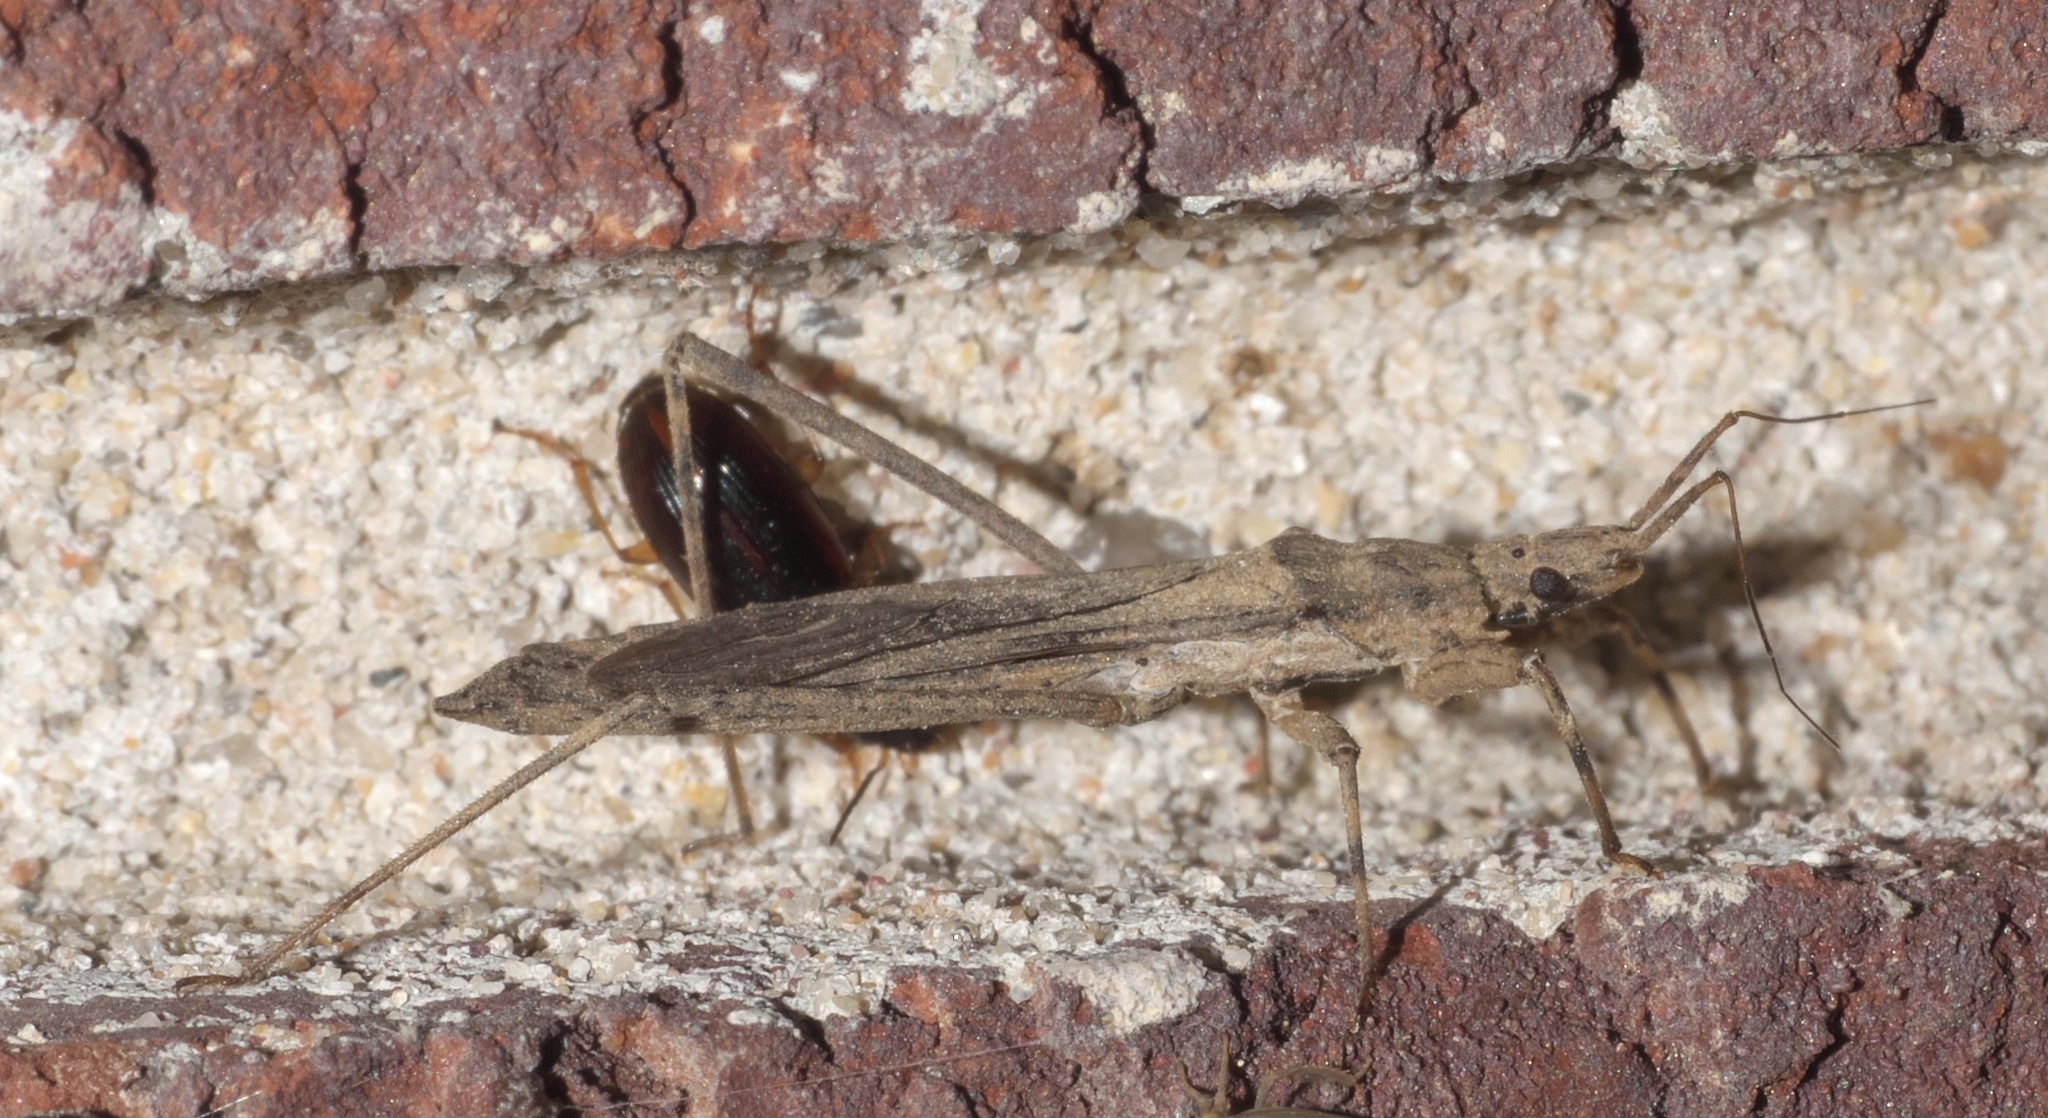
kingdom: Animalia
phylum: Arthropoda
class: Insecta
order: Hemiptera
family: Reduviidae
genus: Pygolampis
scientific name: Pygolampis pectoralis
